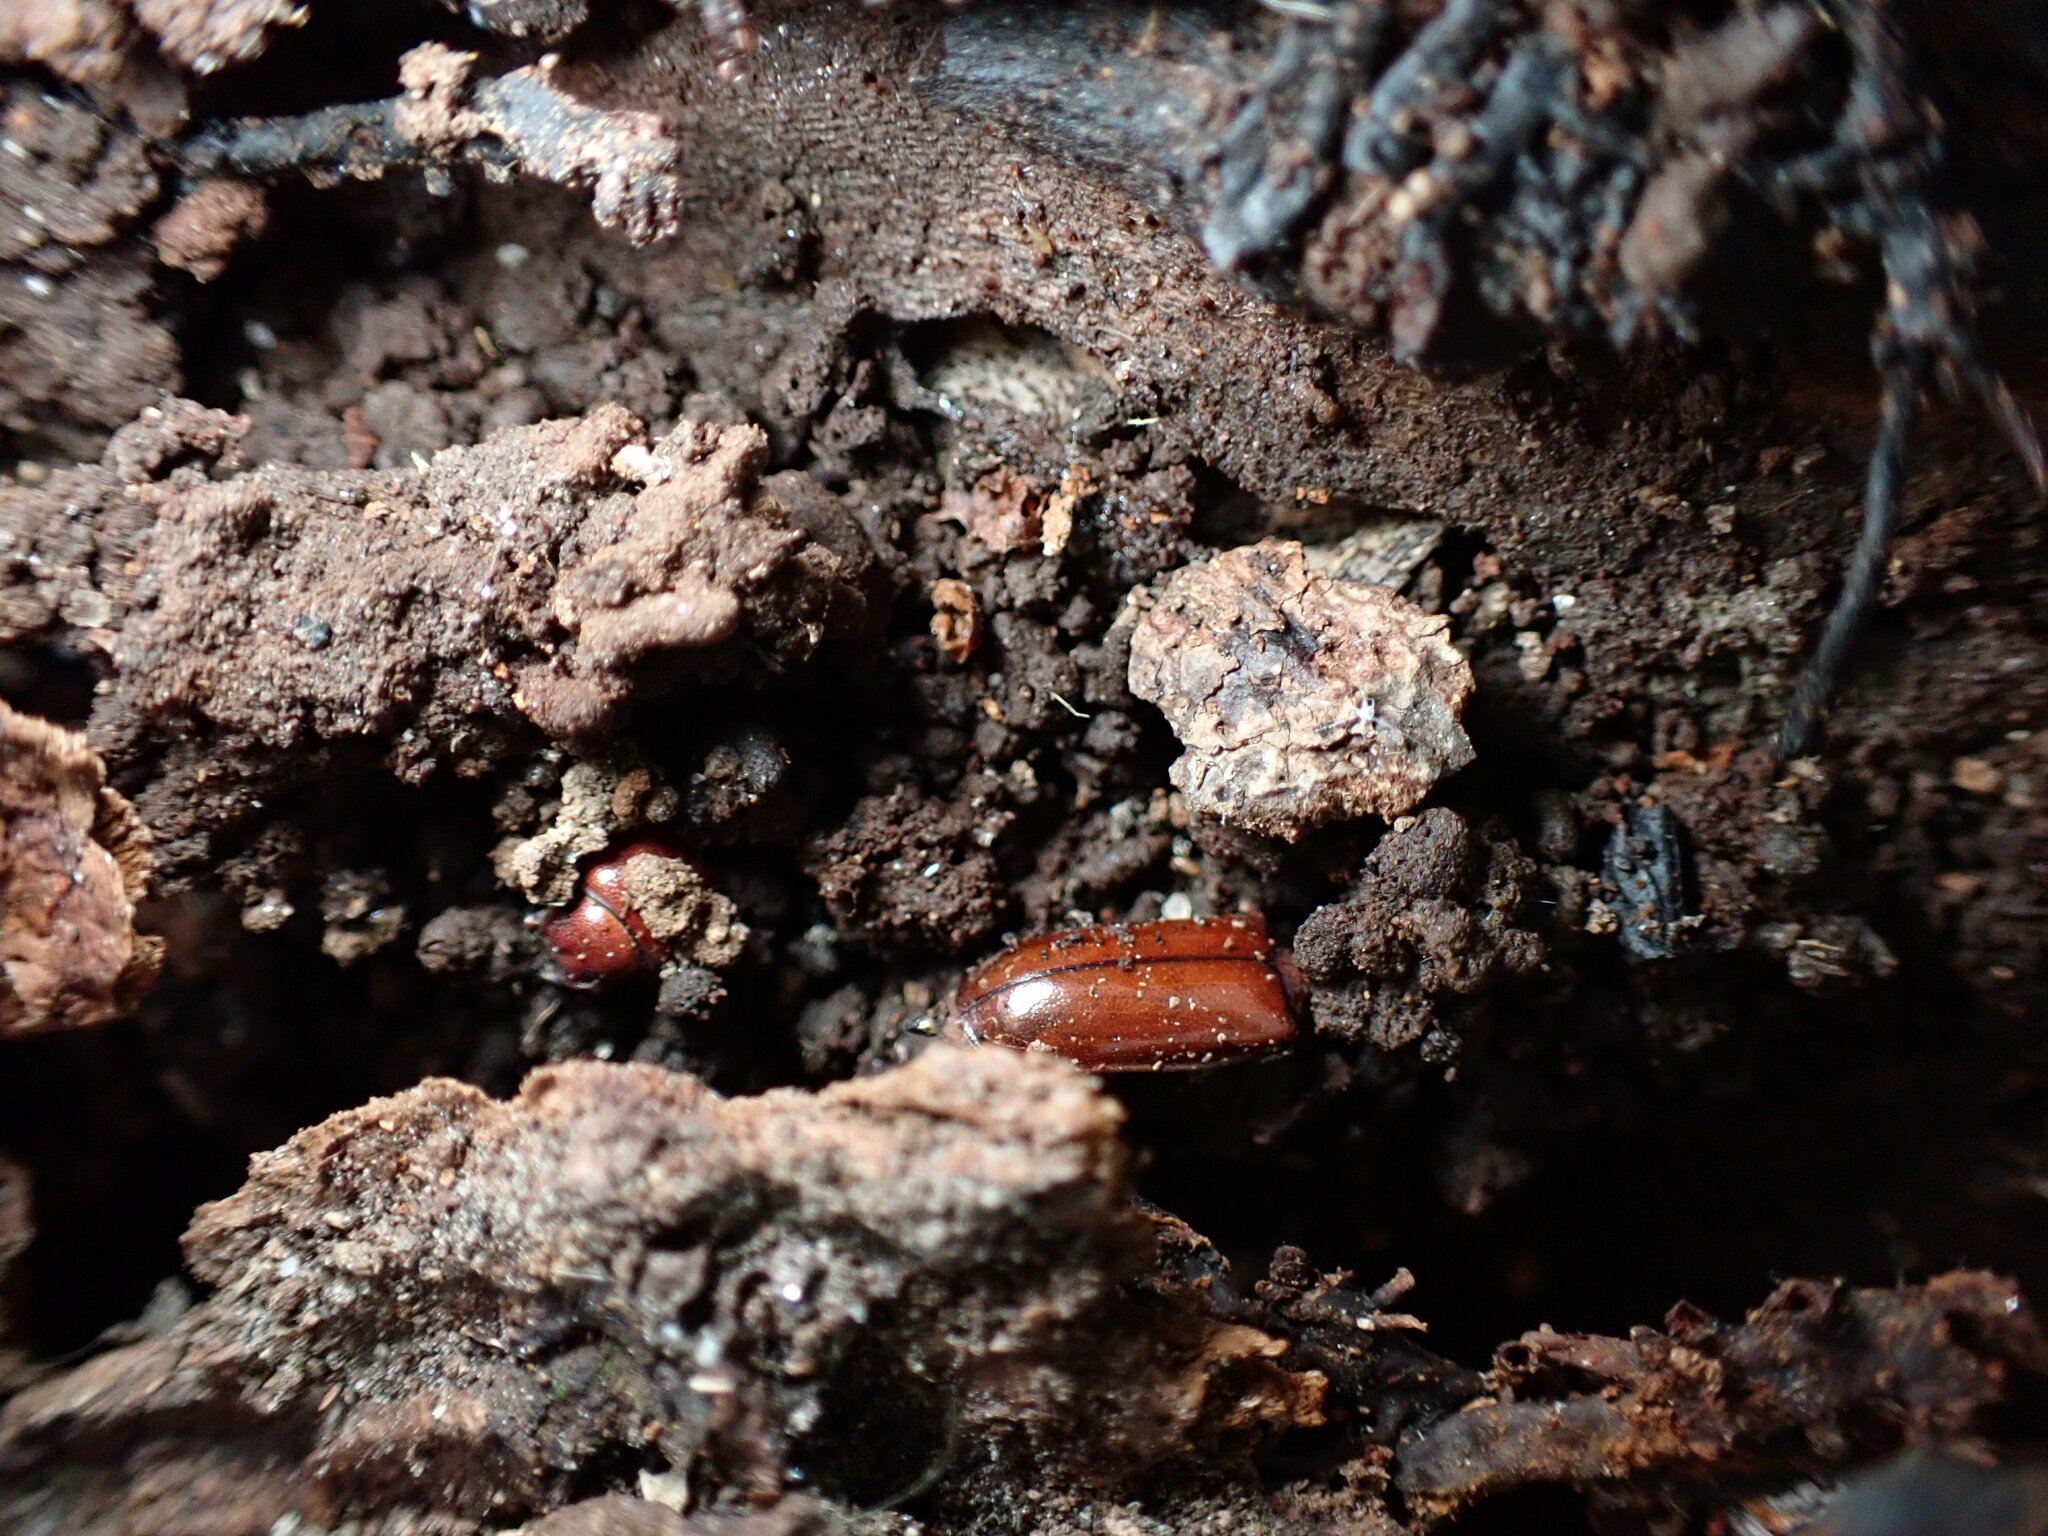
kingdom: Animalia
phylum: Arthropoda
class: Insecta
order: Coleoptera
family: Cerambycidae
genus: Neandra
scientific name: Neandra brunnea
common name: Pole borer
